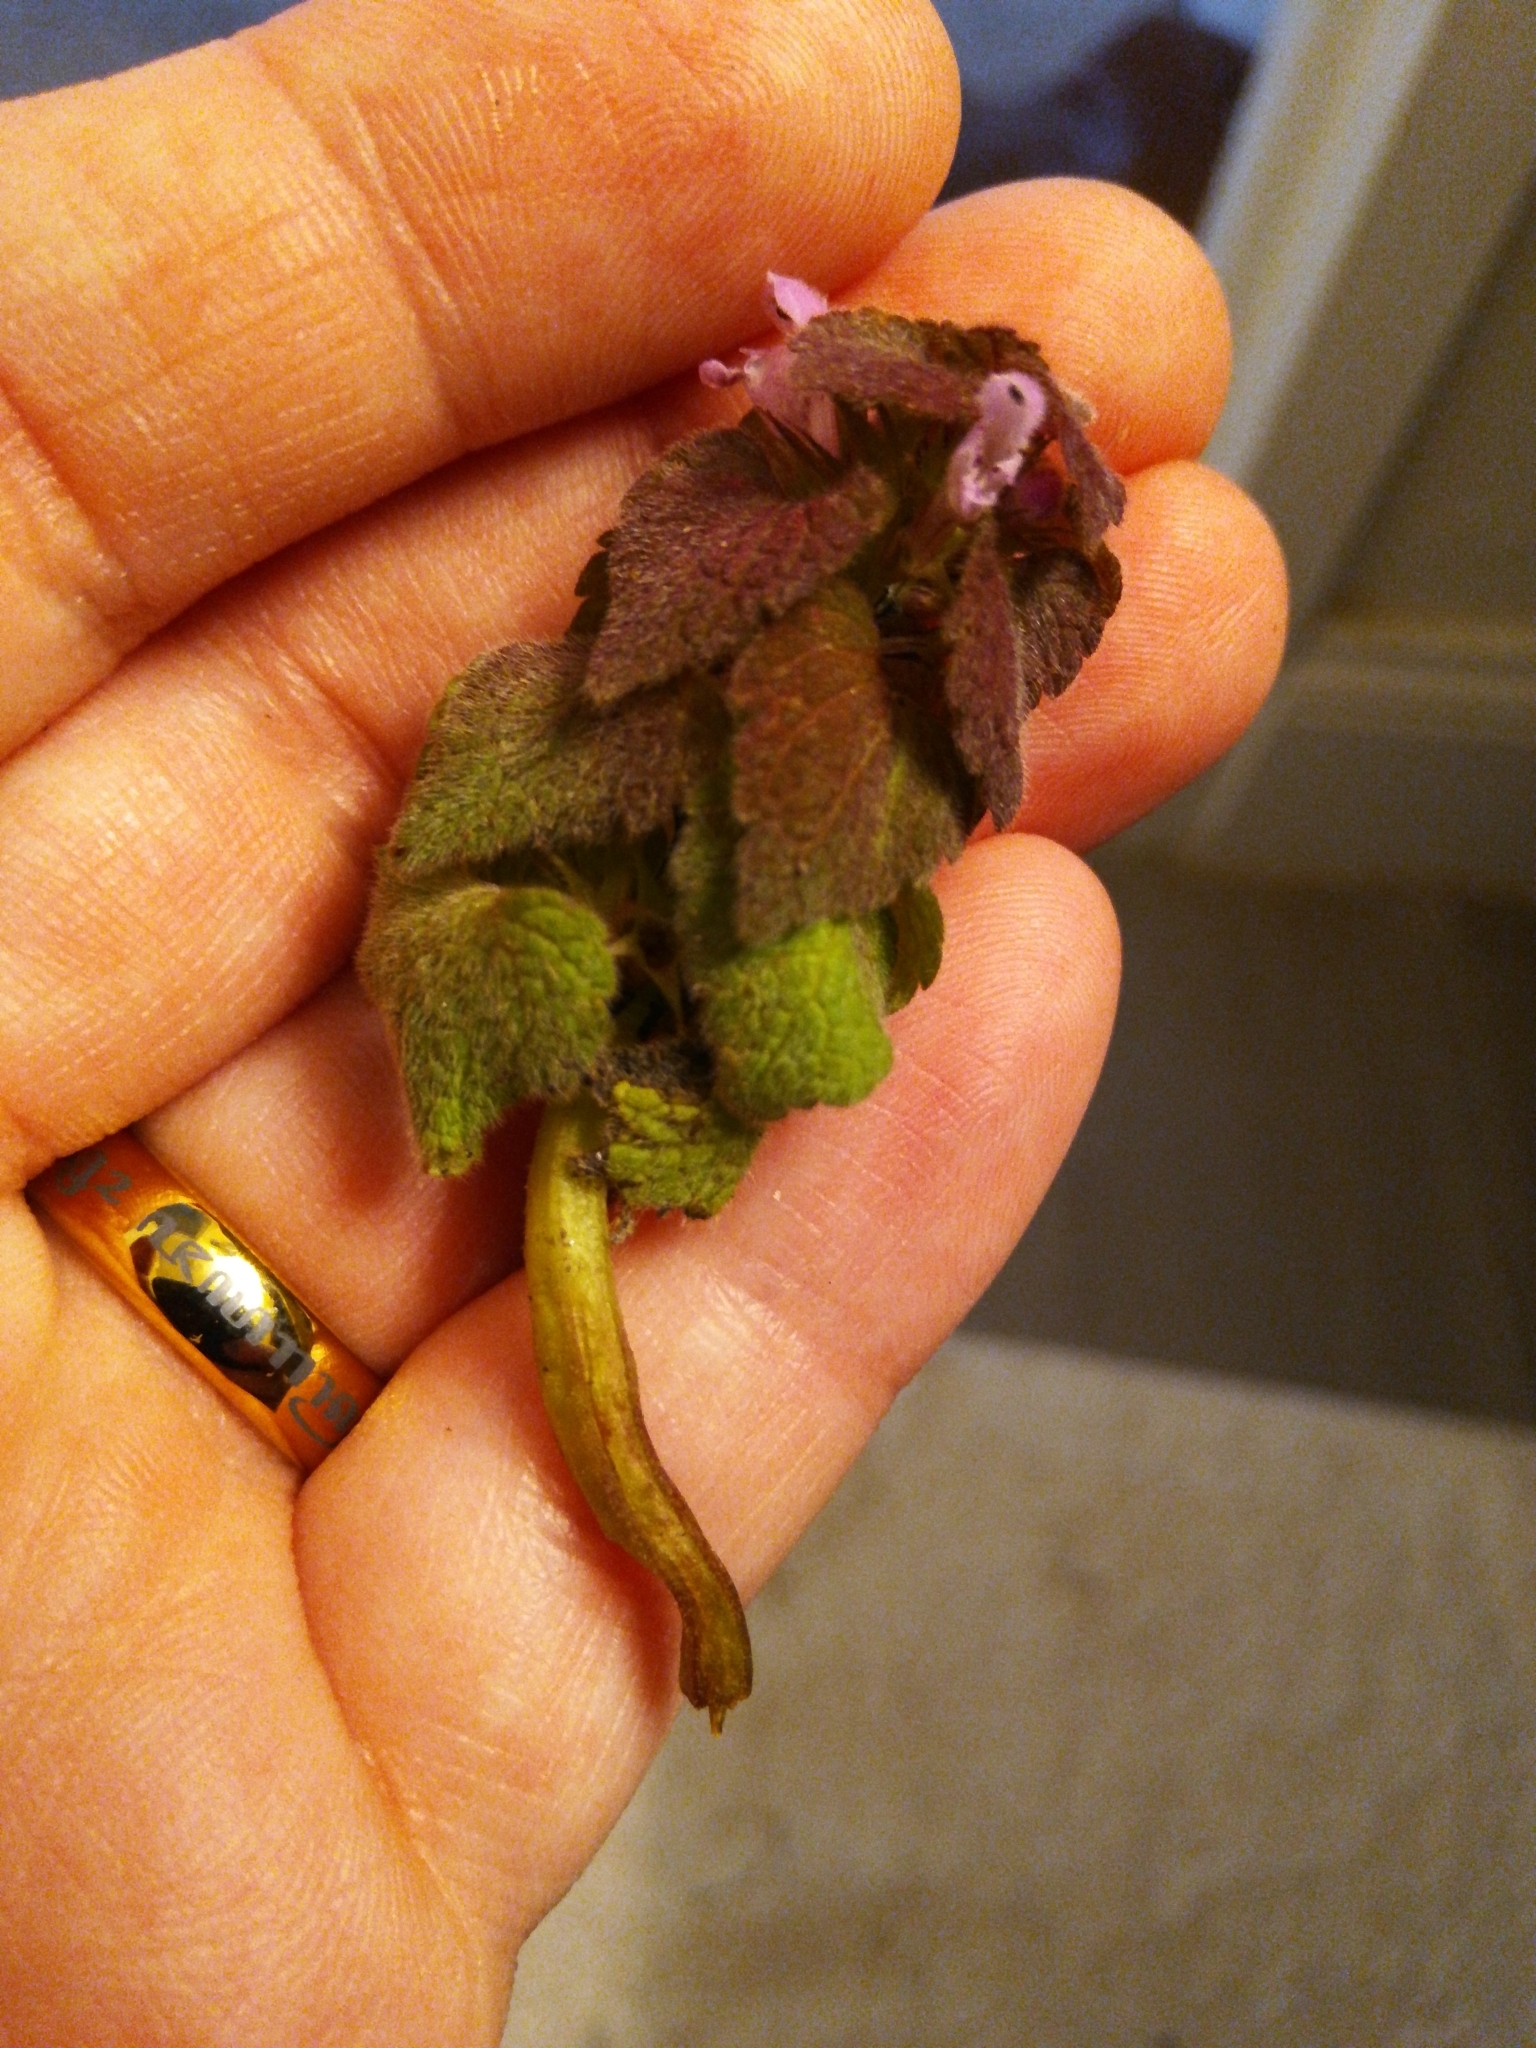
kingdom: Plantae
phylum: Tracheophyta
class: Magnoliopsida
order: Lamiales
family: Lamiaceae
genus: Lamium
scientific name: Lamium purpureum
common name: Red dead-nettle
